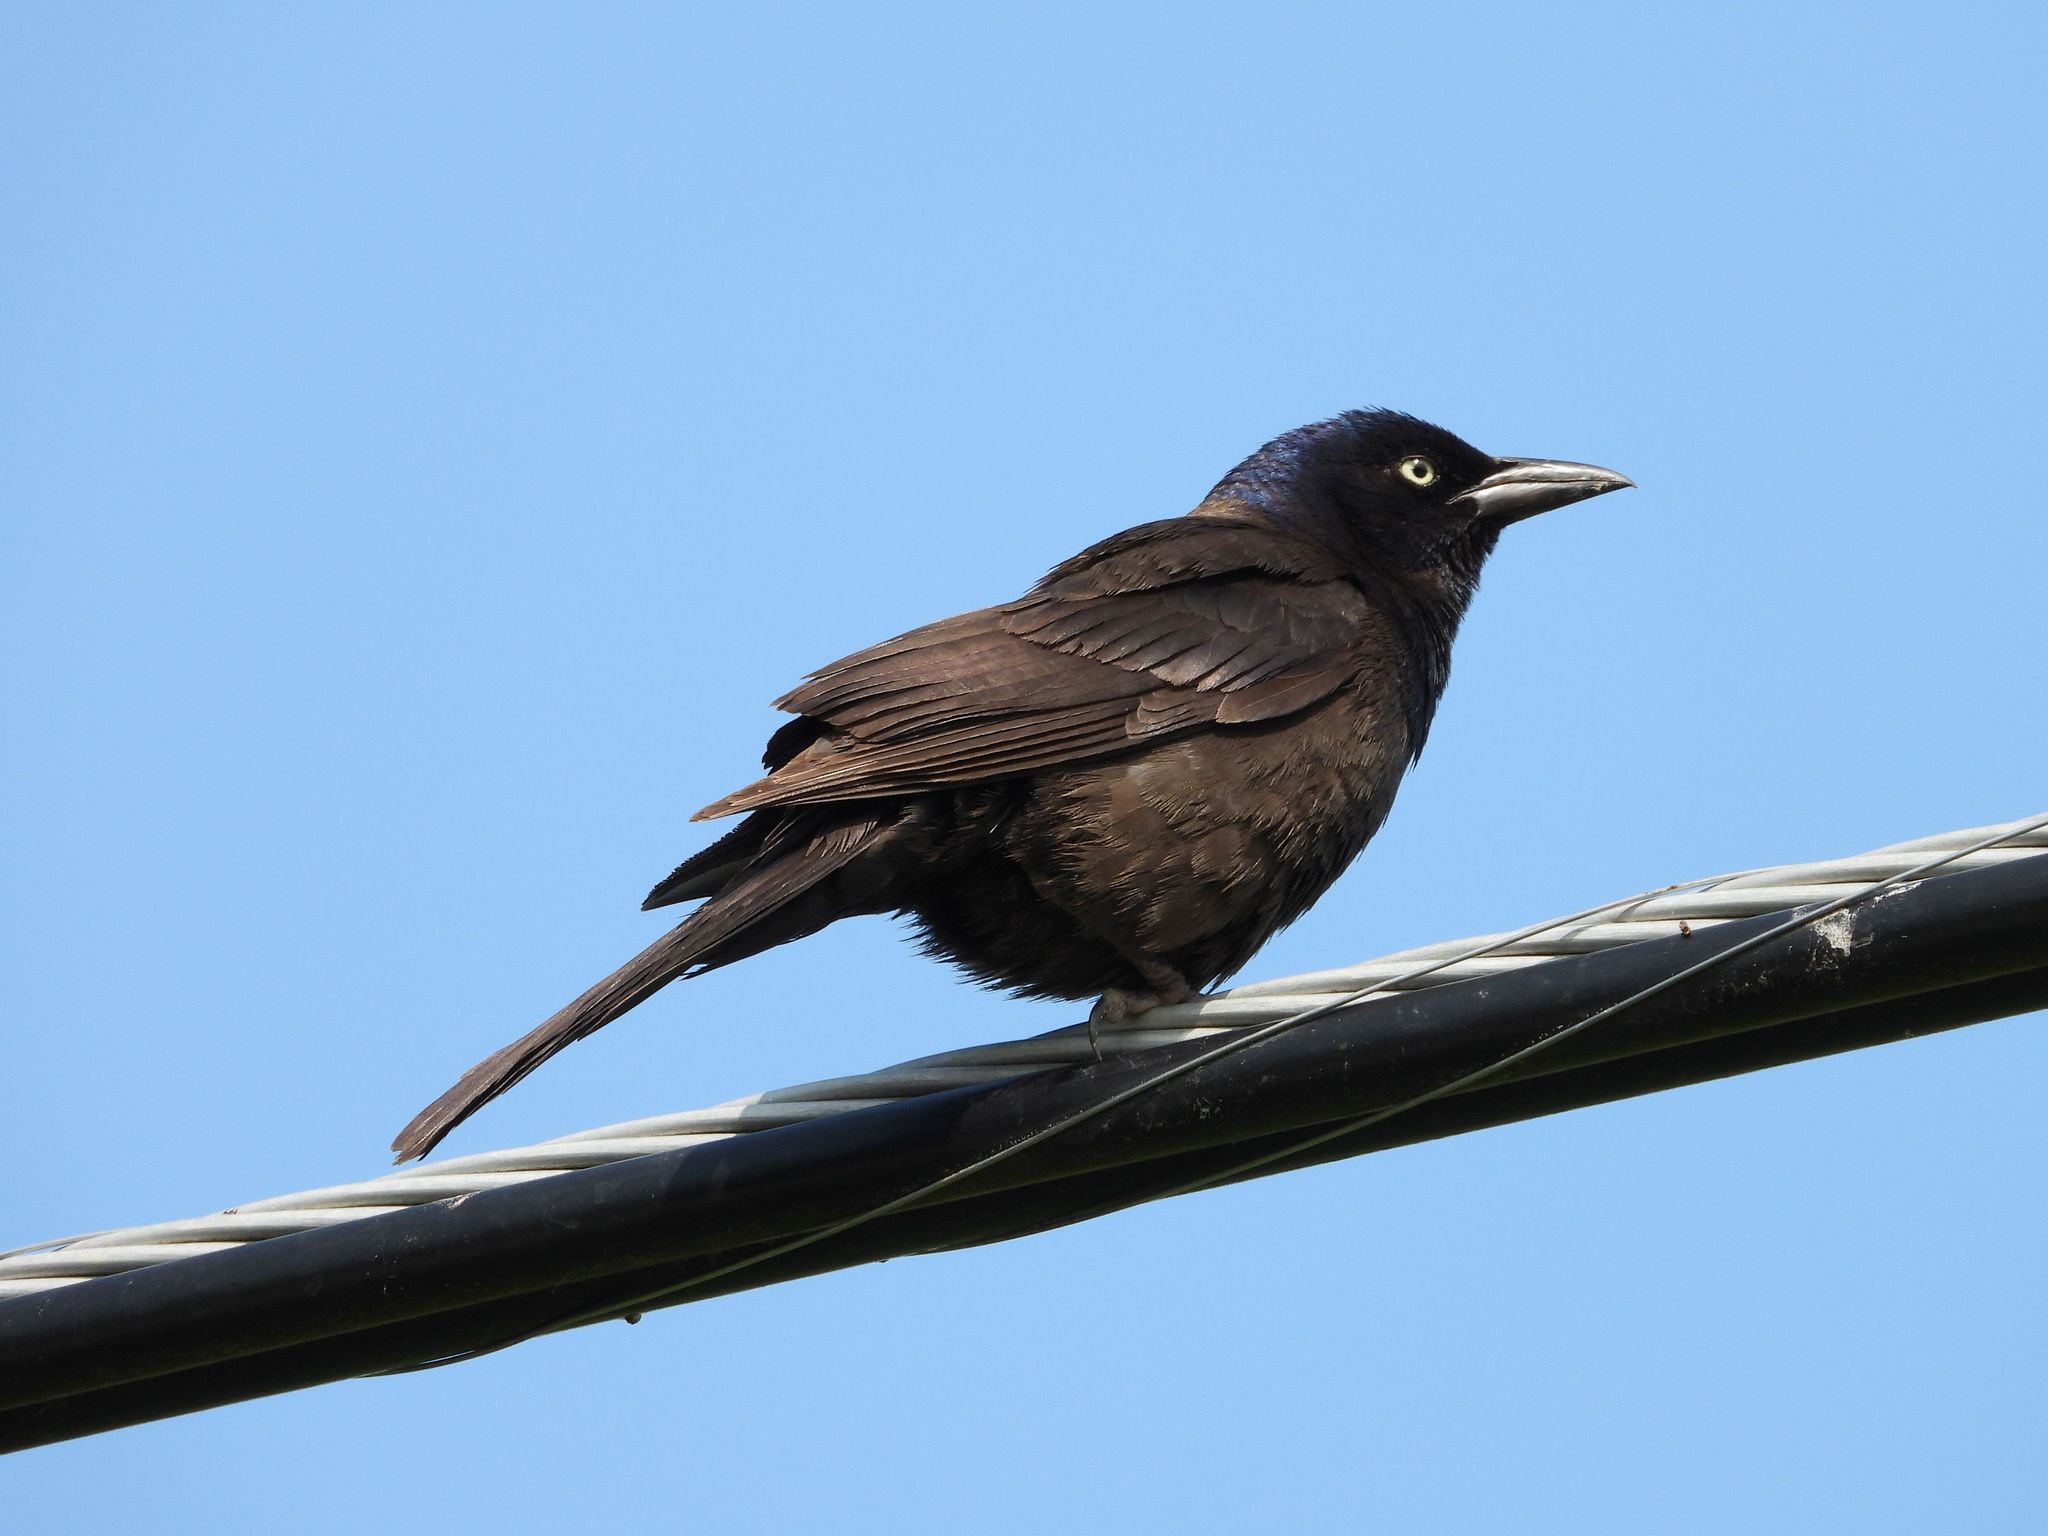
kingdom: Animalia
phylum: Chordata
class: Aves
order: Passeriformes
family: Icteridae
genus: Quiscalus
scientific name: Quiscalus quiscula
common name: Common grackle
